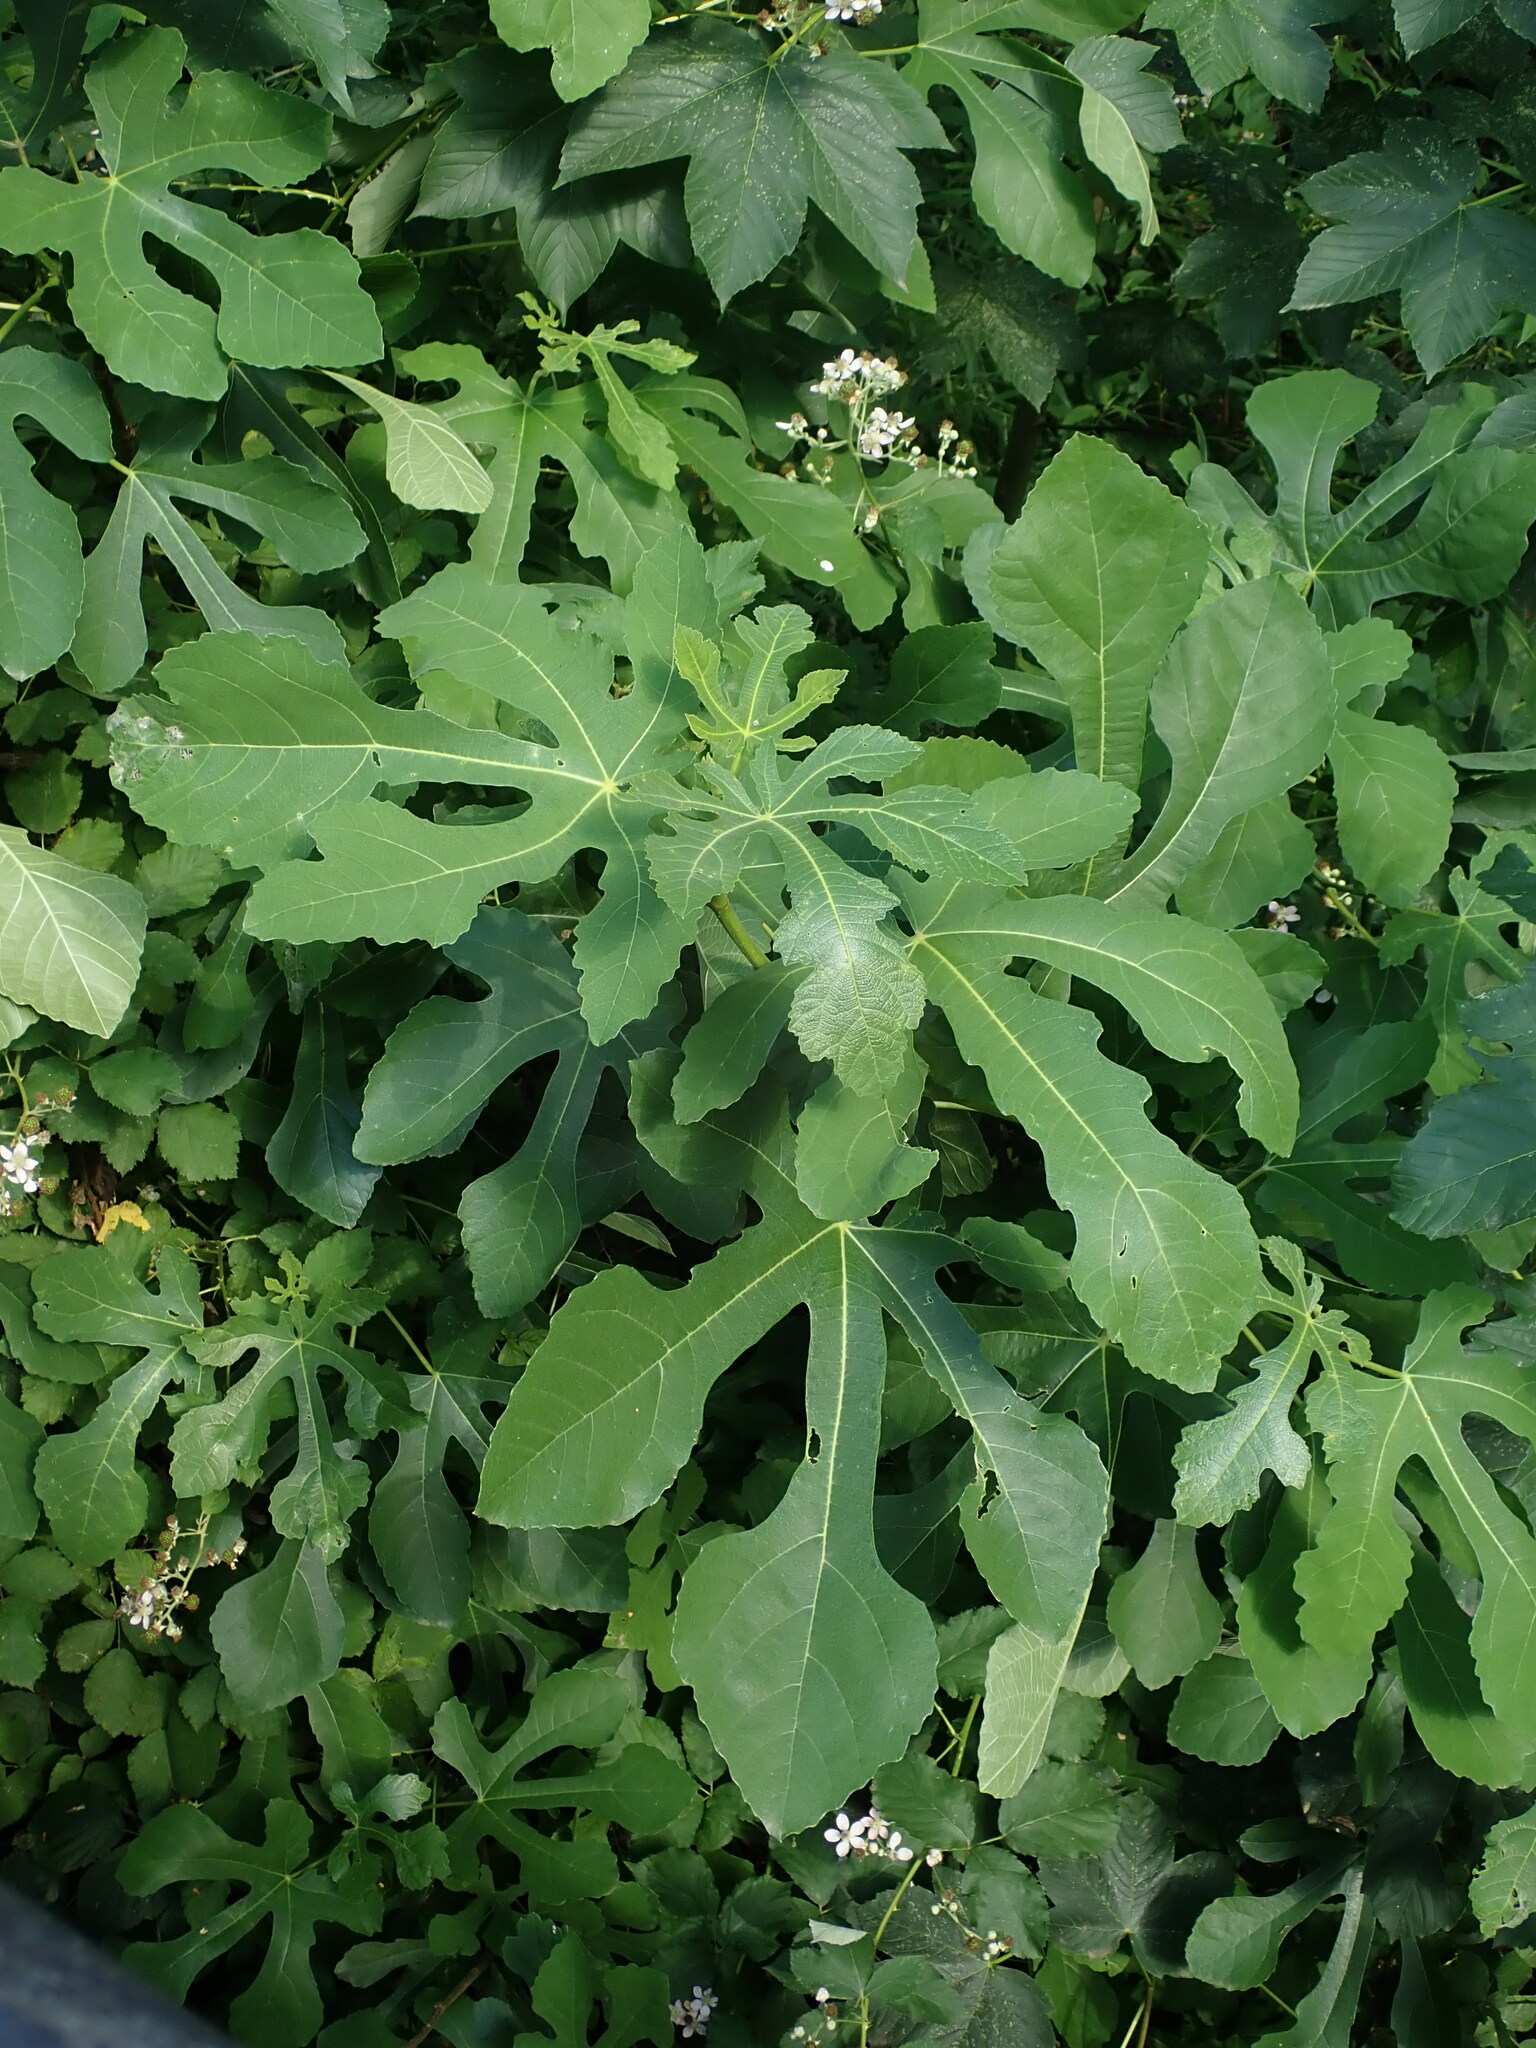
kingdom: Plantae
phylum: Tracheophyta
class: Magnoliopsida
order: Rosales
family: Moraceae
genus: Ficus
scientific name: Ficus carica
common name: Fig
